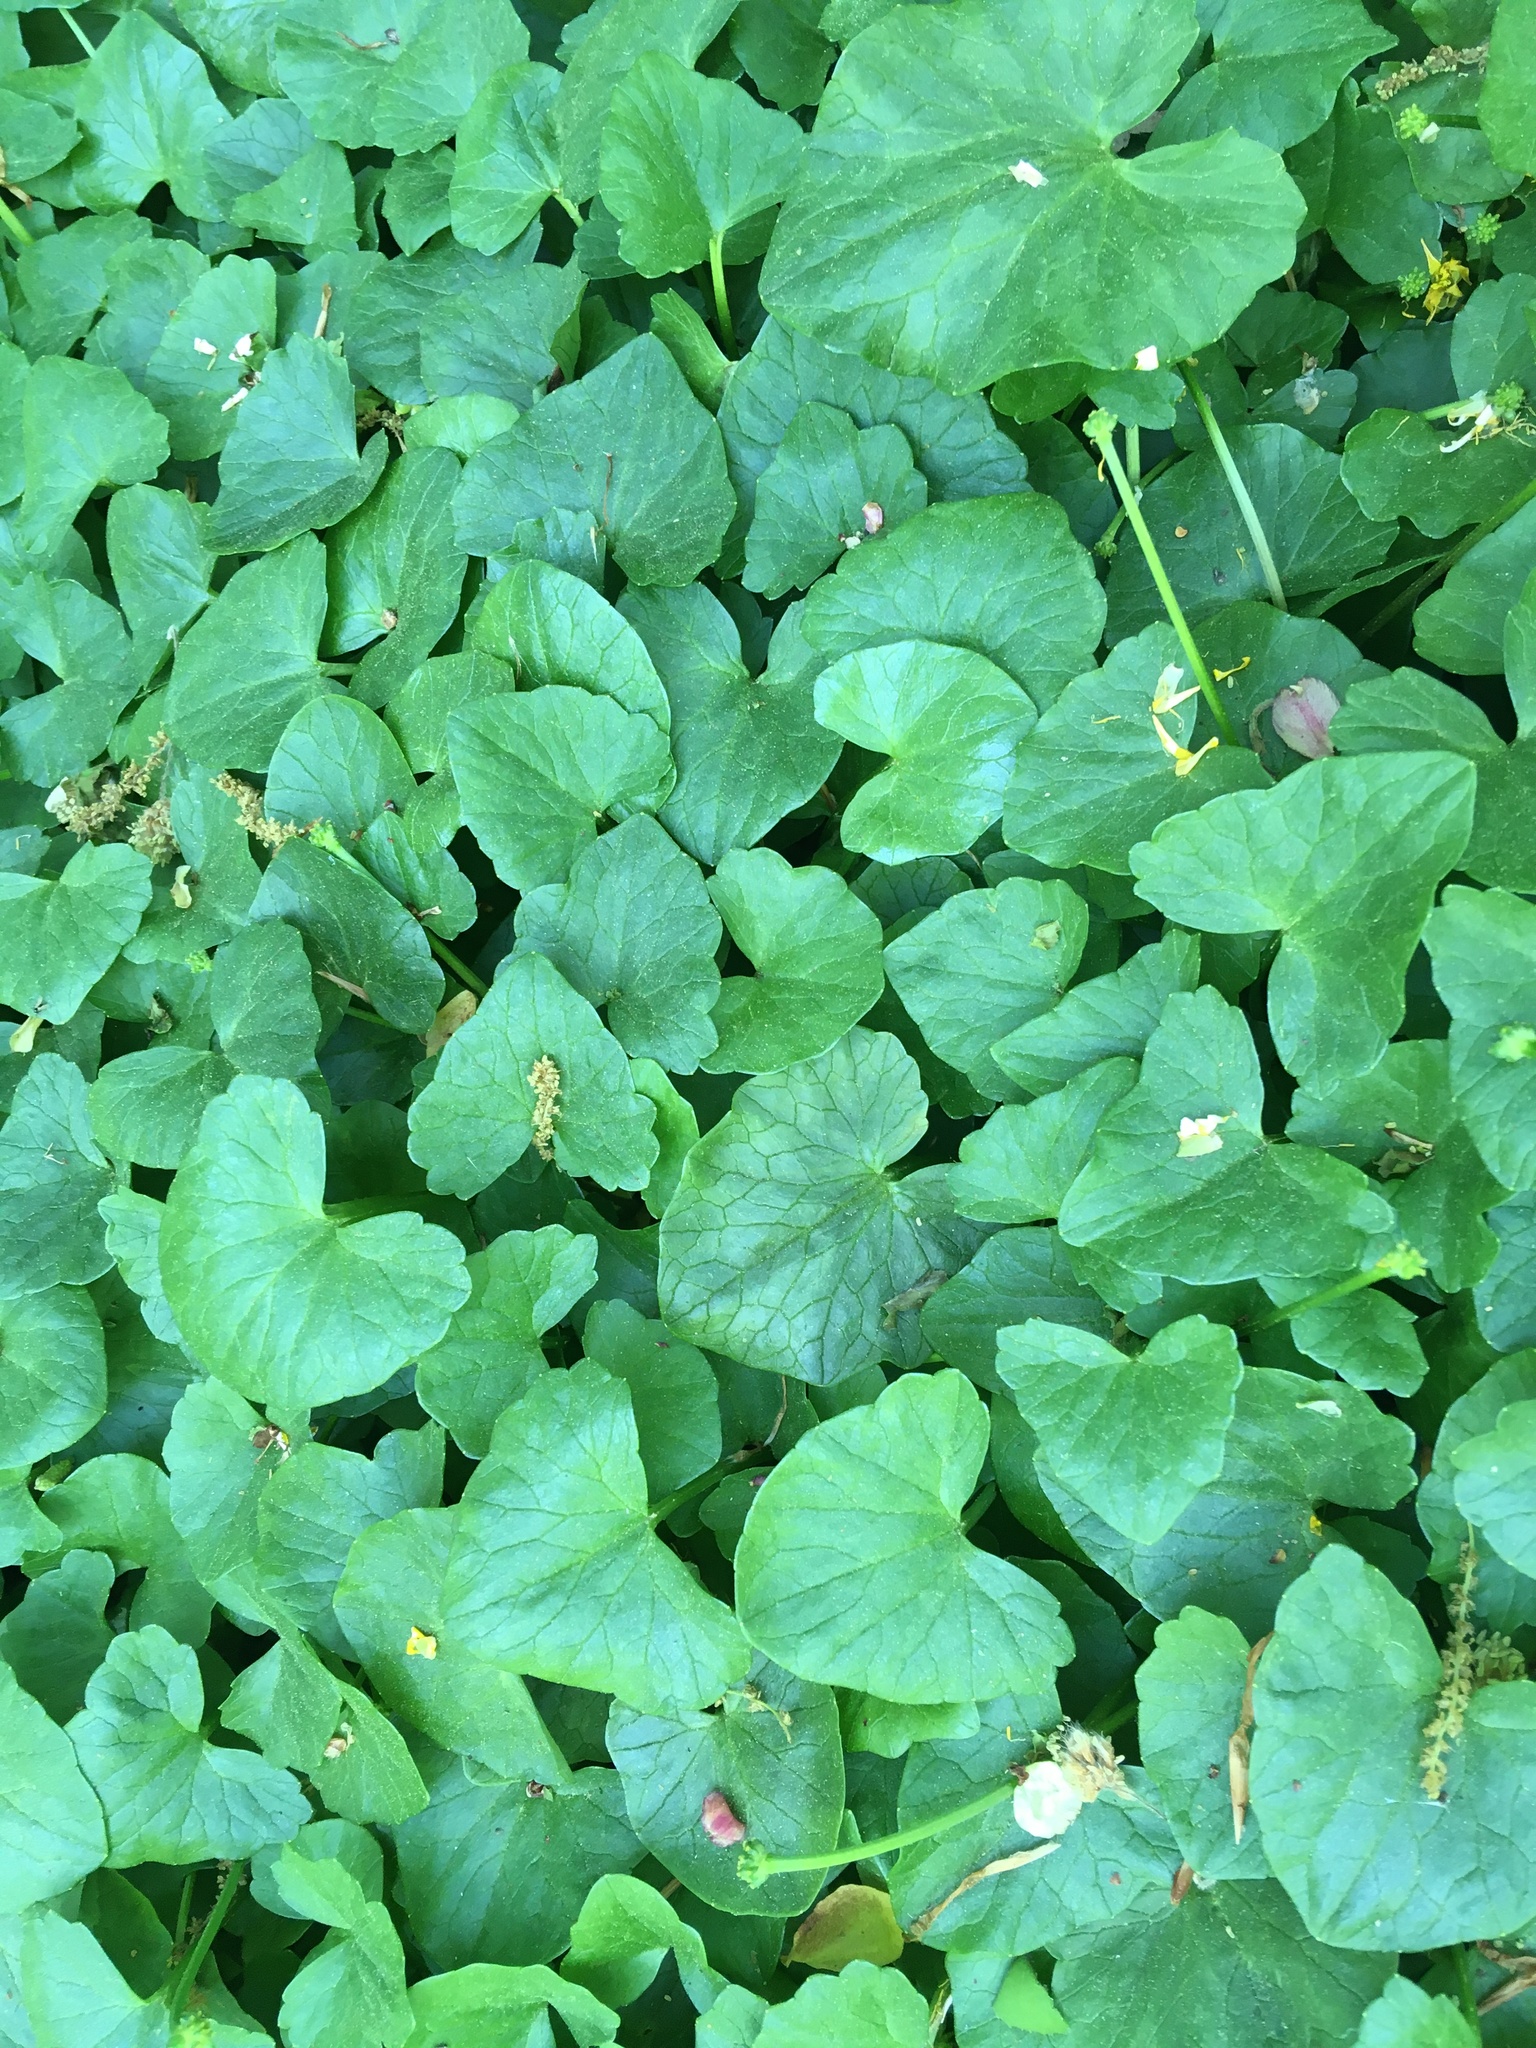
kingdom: Plantae
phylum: Tracheophyta
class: Magnoliopsida
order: Ranunculales
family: Ranunculaceae
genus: Ficaria
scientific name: Ficaria verna
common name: Lesser celandine
